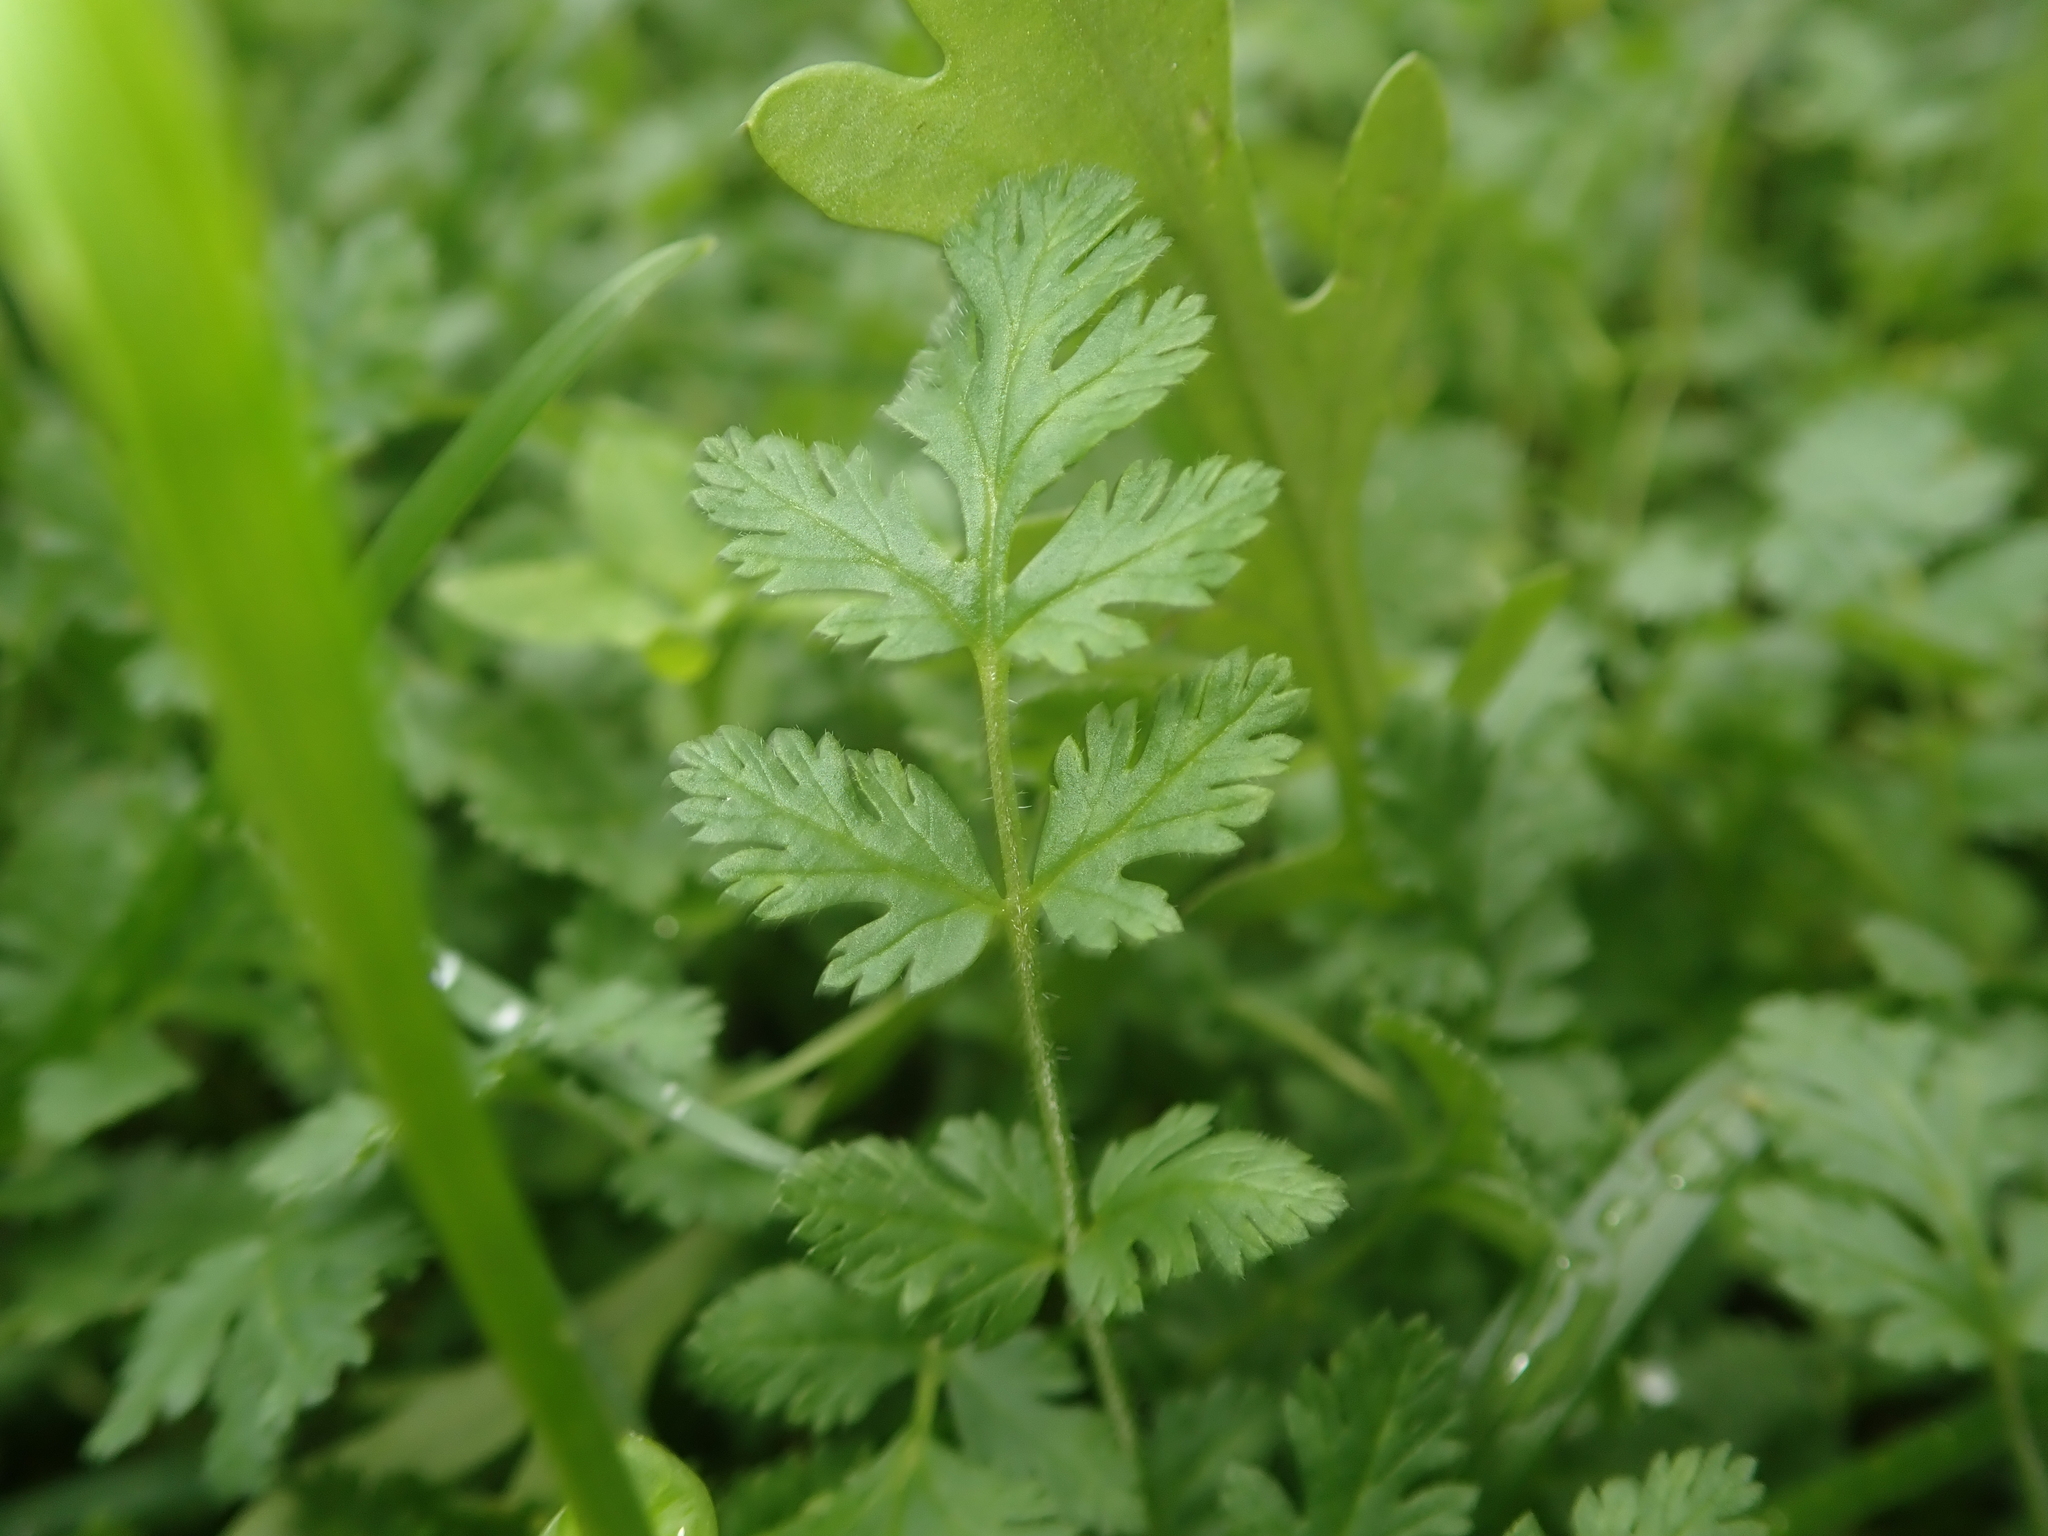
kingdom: Plantae
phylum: Tracheophyta
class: Magnoliopsida
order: Geraniales
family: Geraniaceae
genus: Erodium
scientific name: Erodium cicutarium
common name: Common stork's-bill
